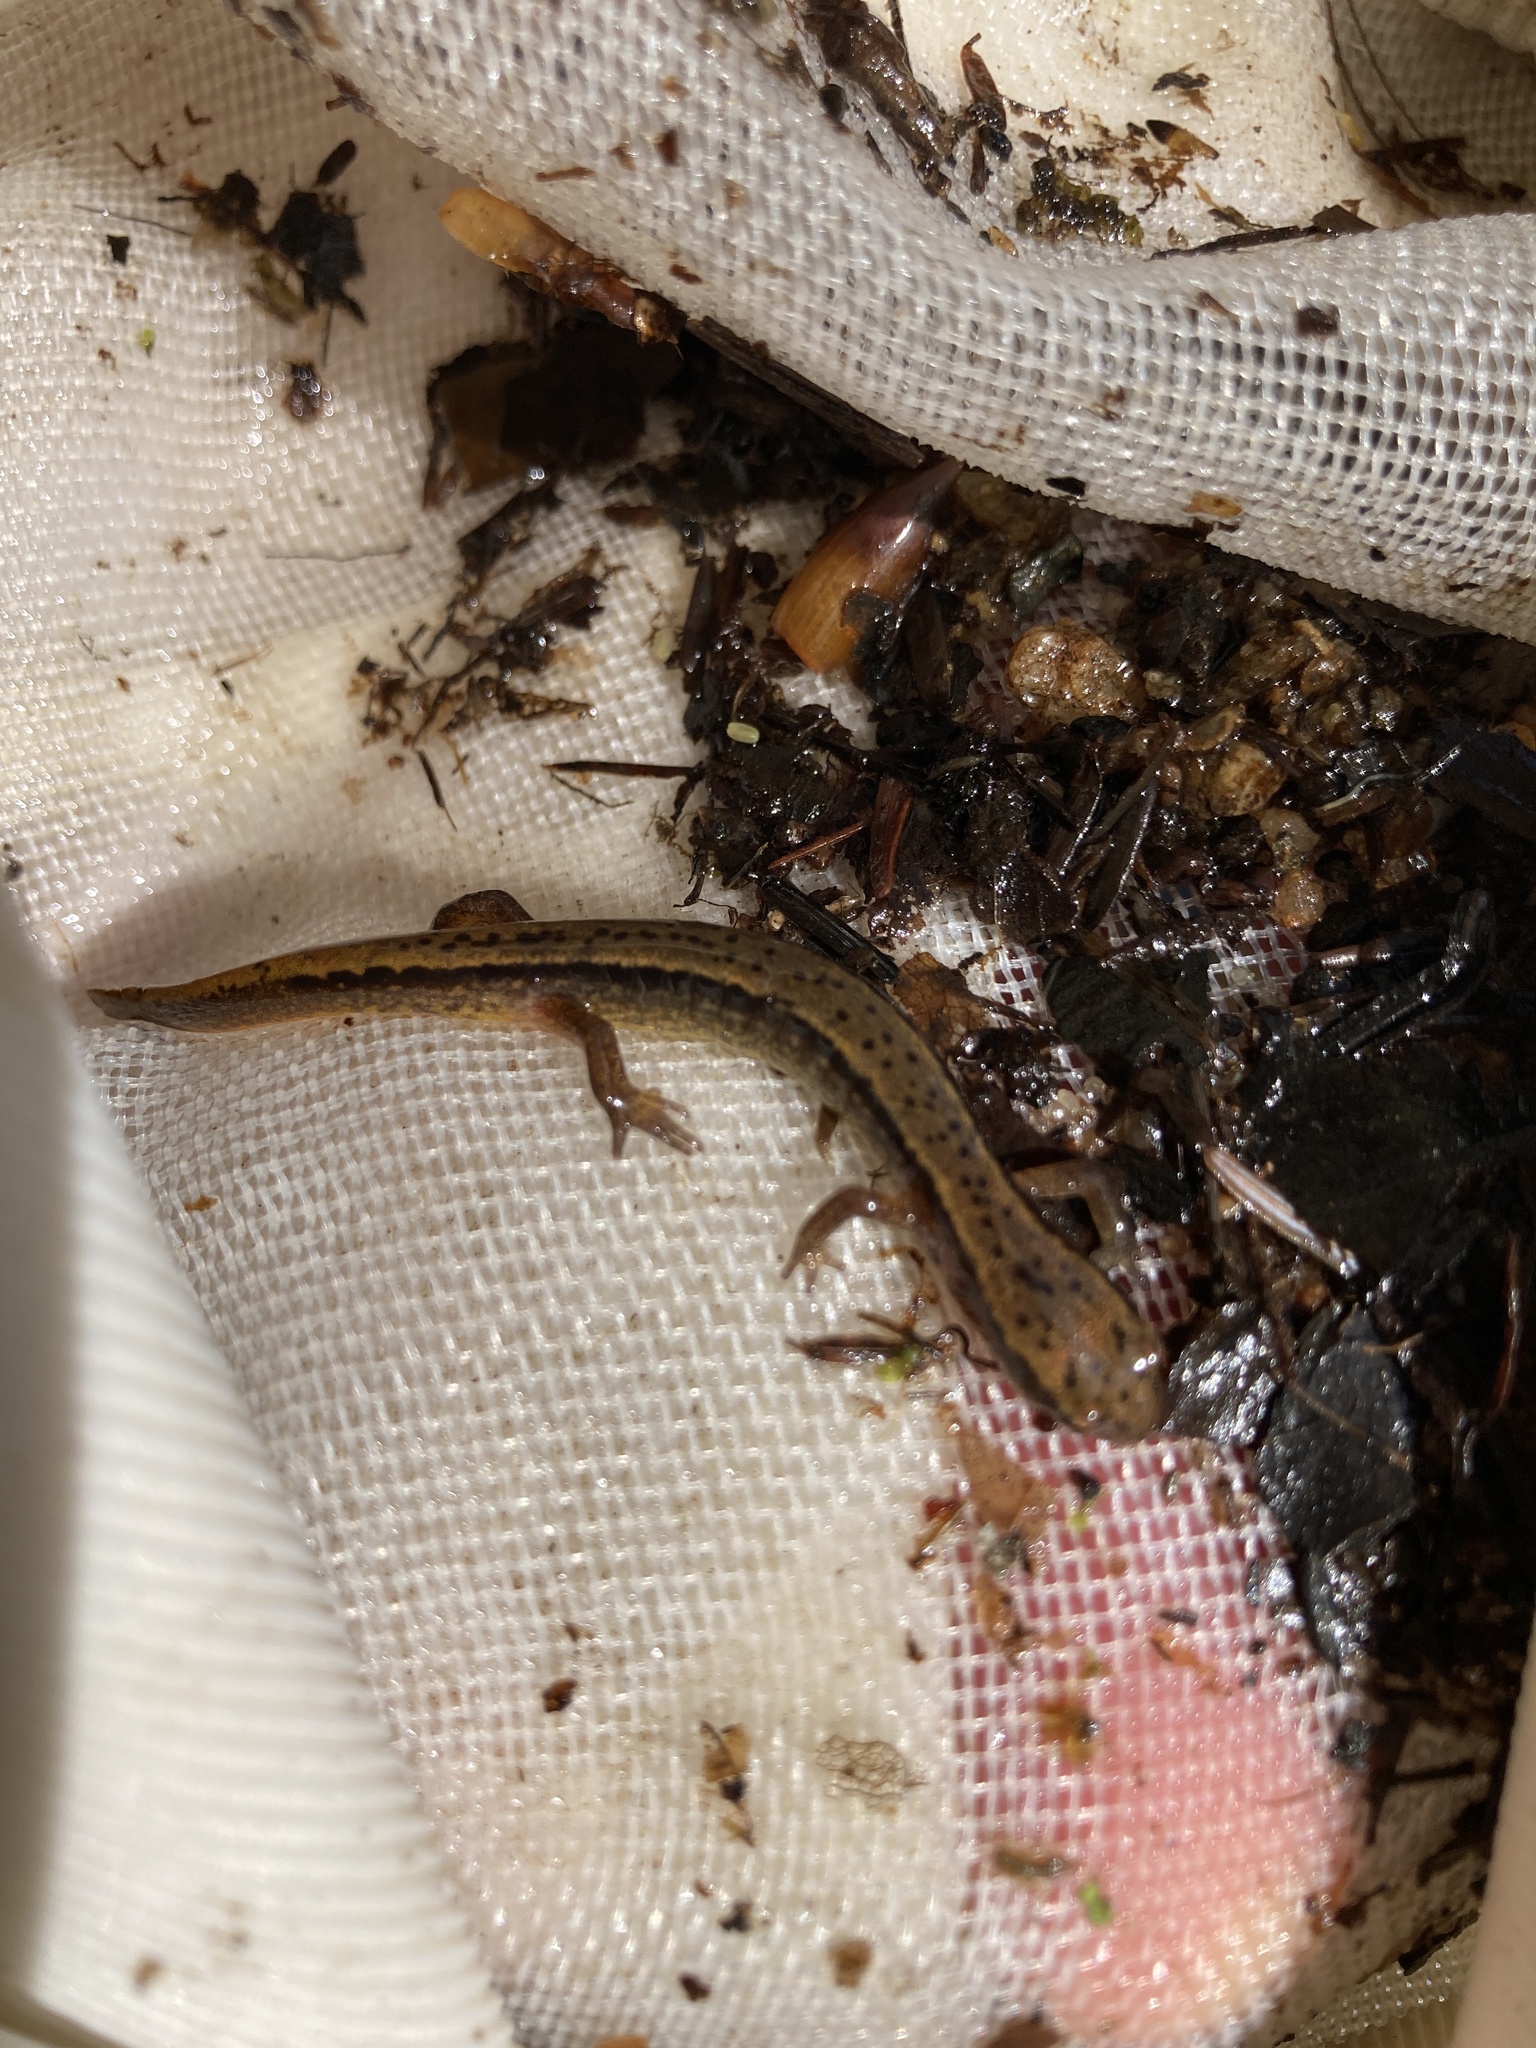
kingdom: Animalia
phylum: Chordata
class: Amphibia
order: Caudata
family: Plethodontidae
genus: Eurycea
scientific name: Eurycea bislineata
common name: Northern two-lined salamander
